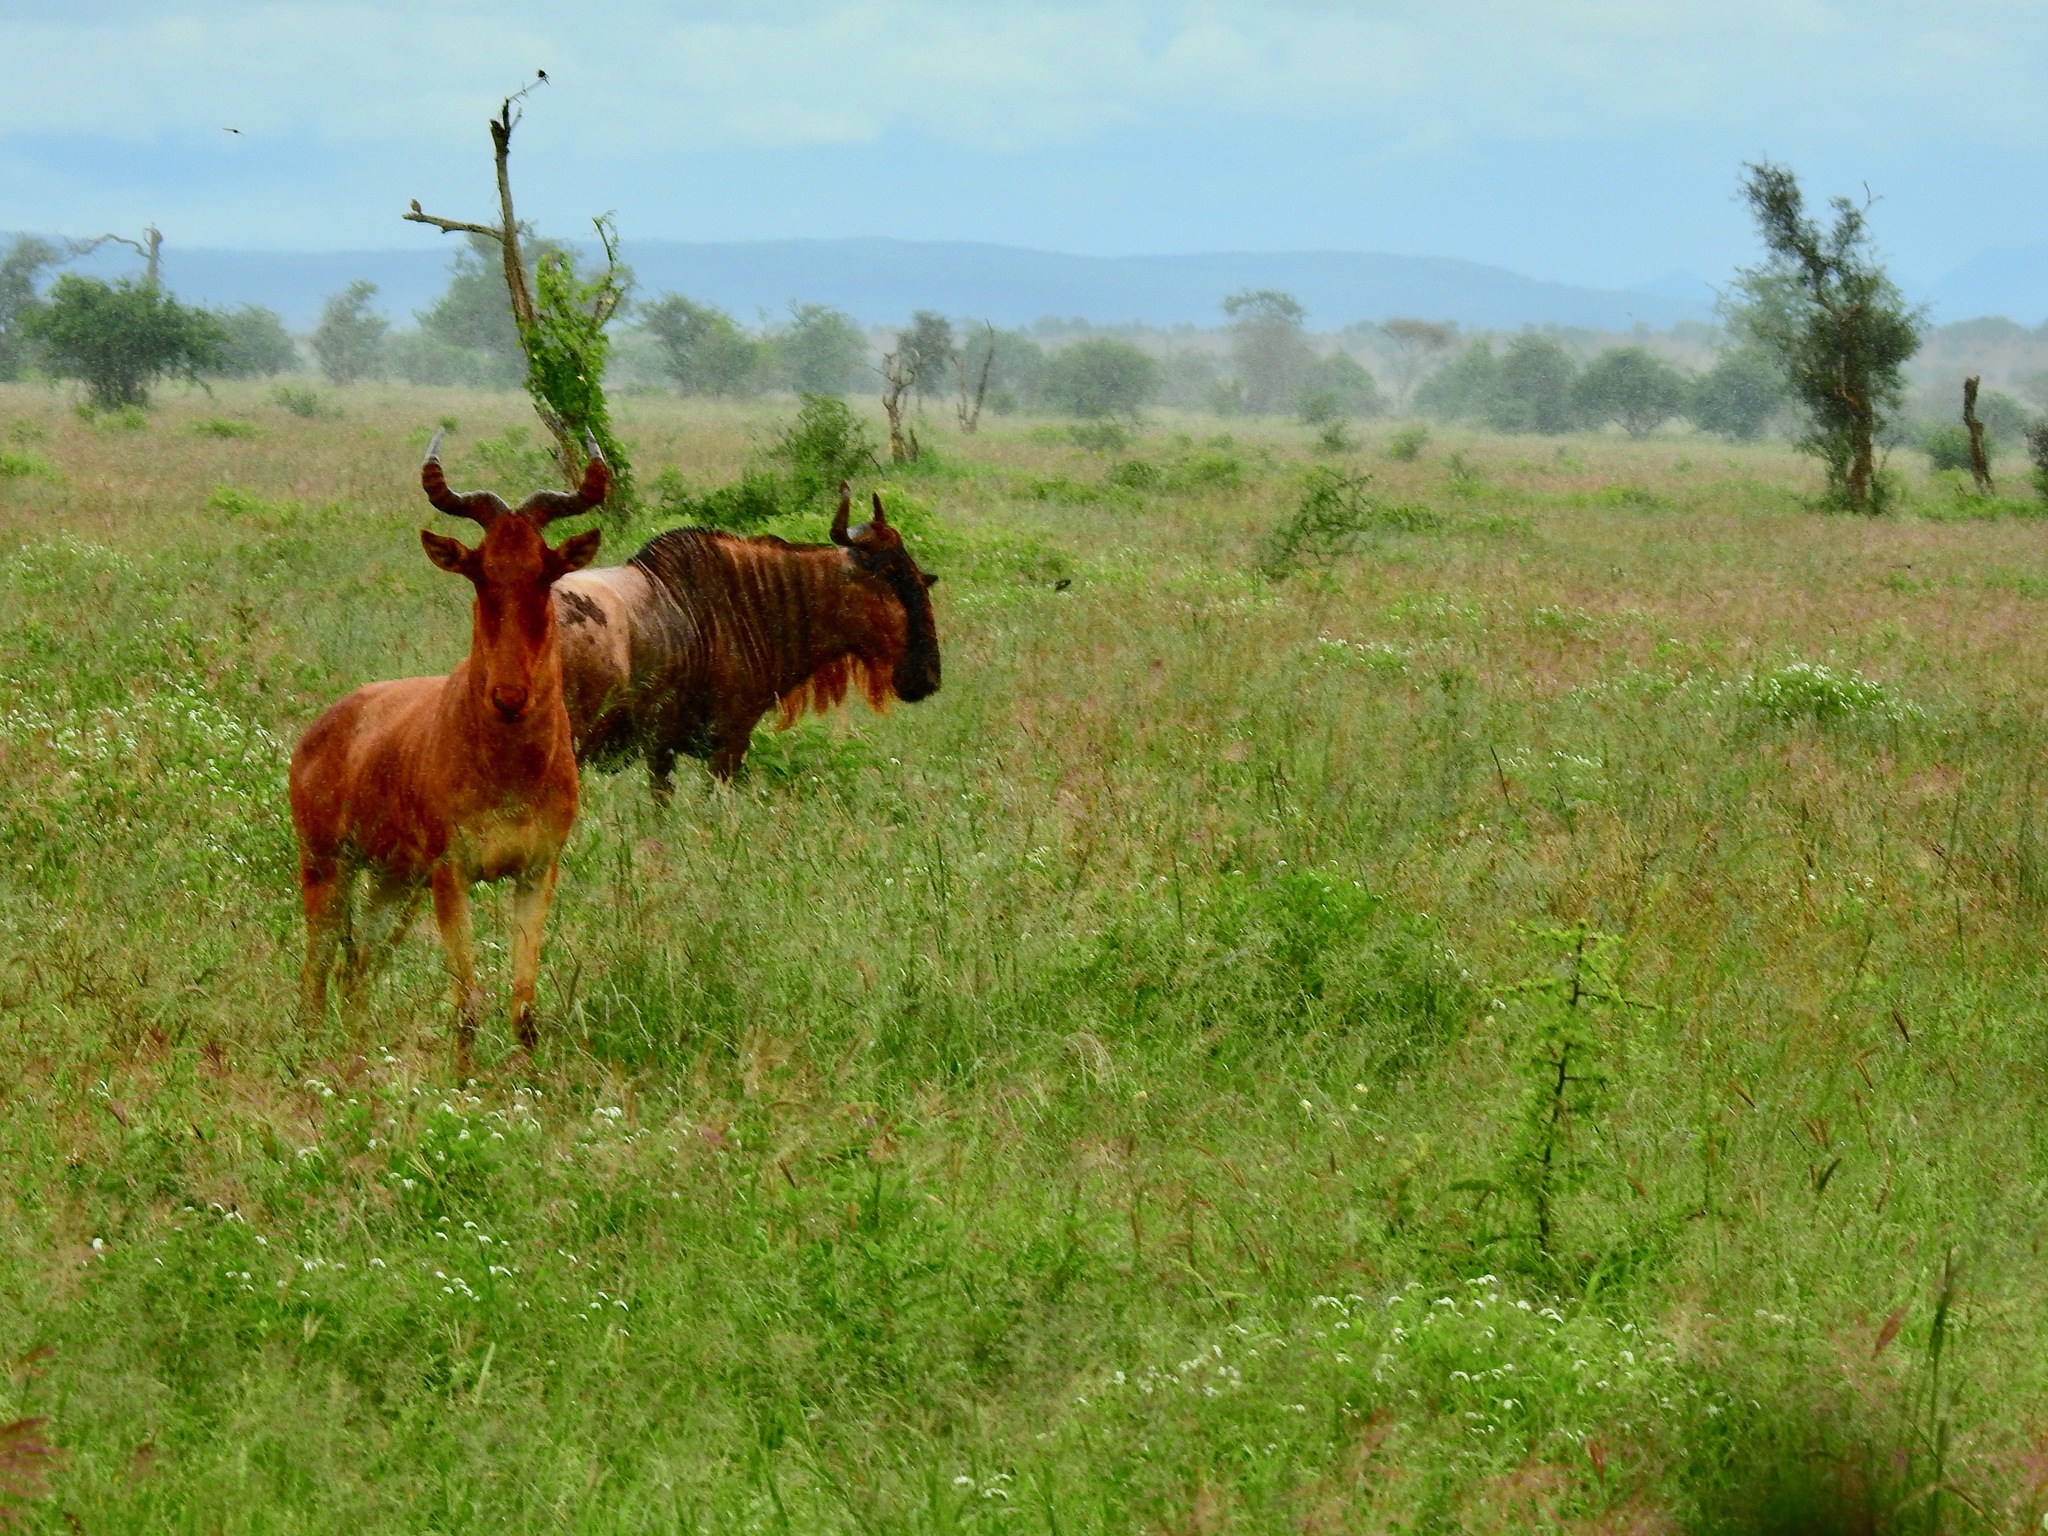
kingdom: Animalia
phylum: Chordata
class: Mammalia
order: Artiodactyla
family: Bovidae
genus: Alcelaphus
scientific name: Alcelaphus buselaphus
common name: Hartebeest
